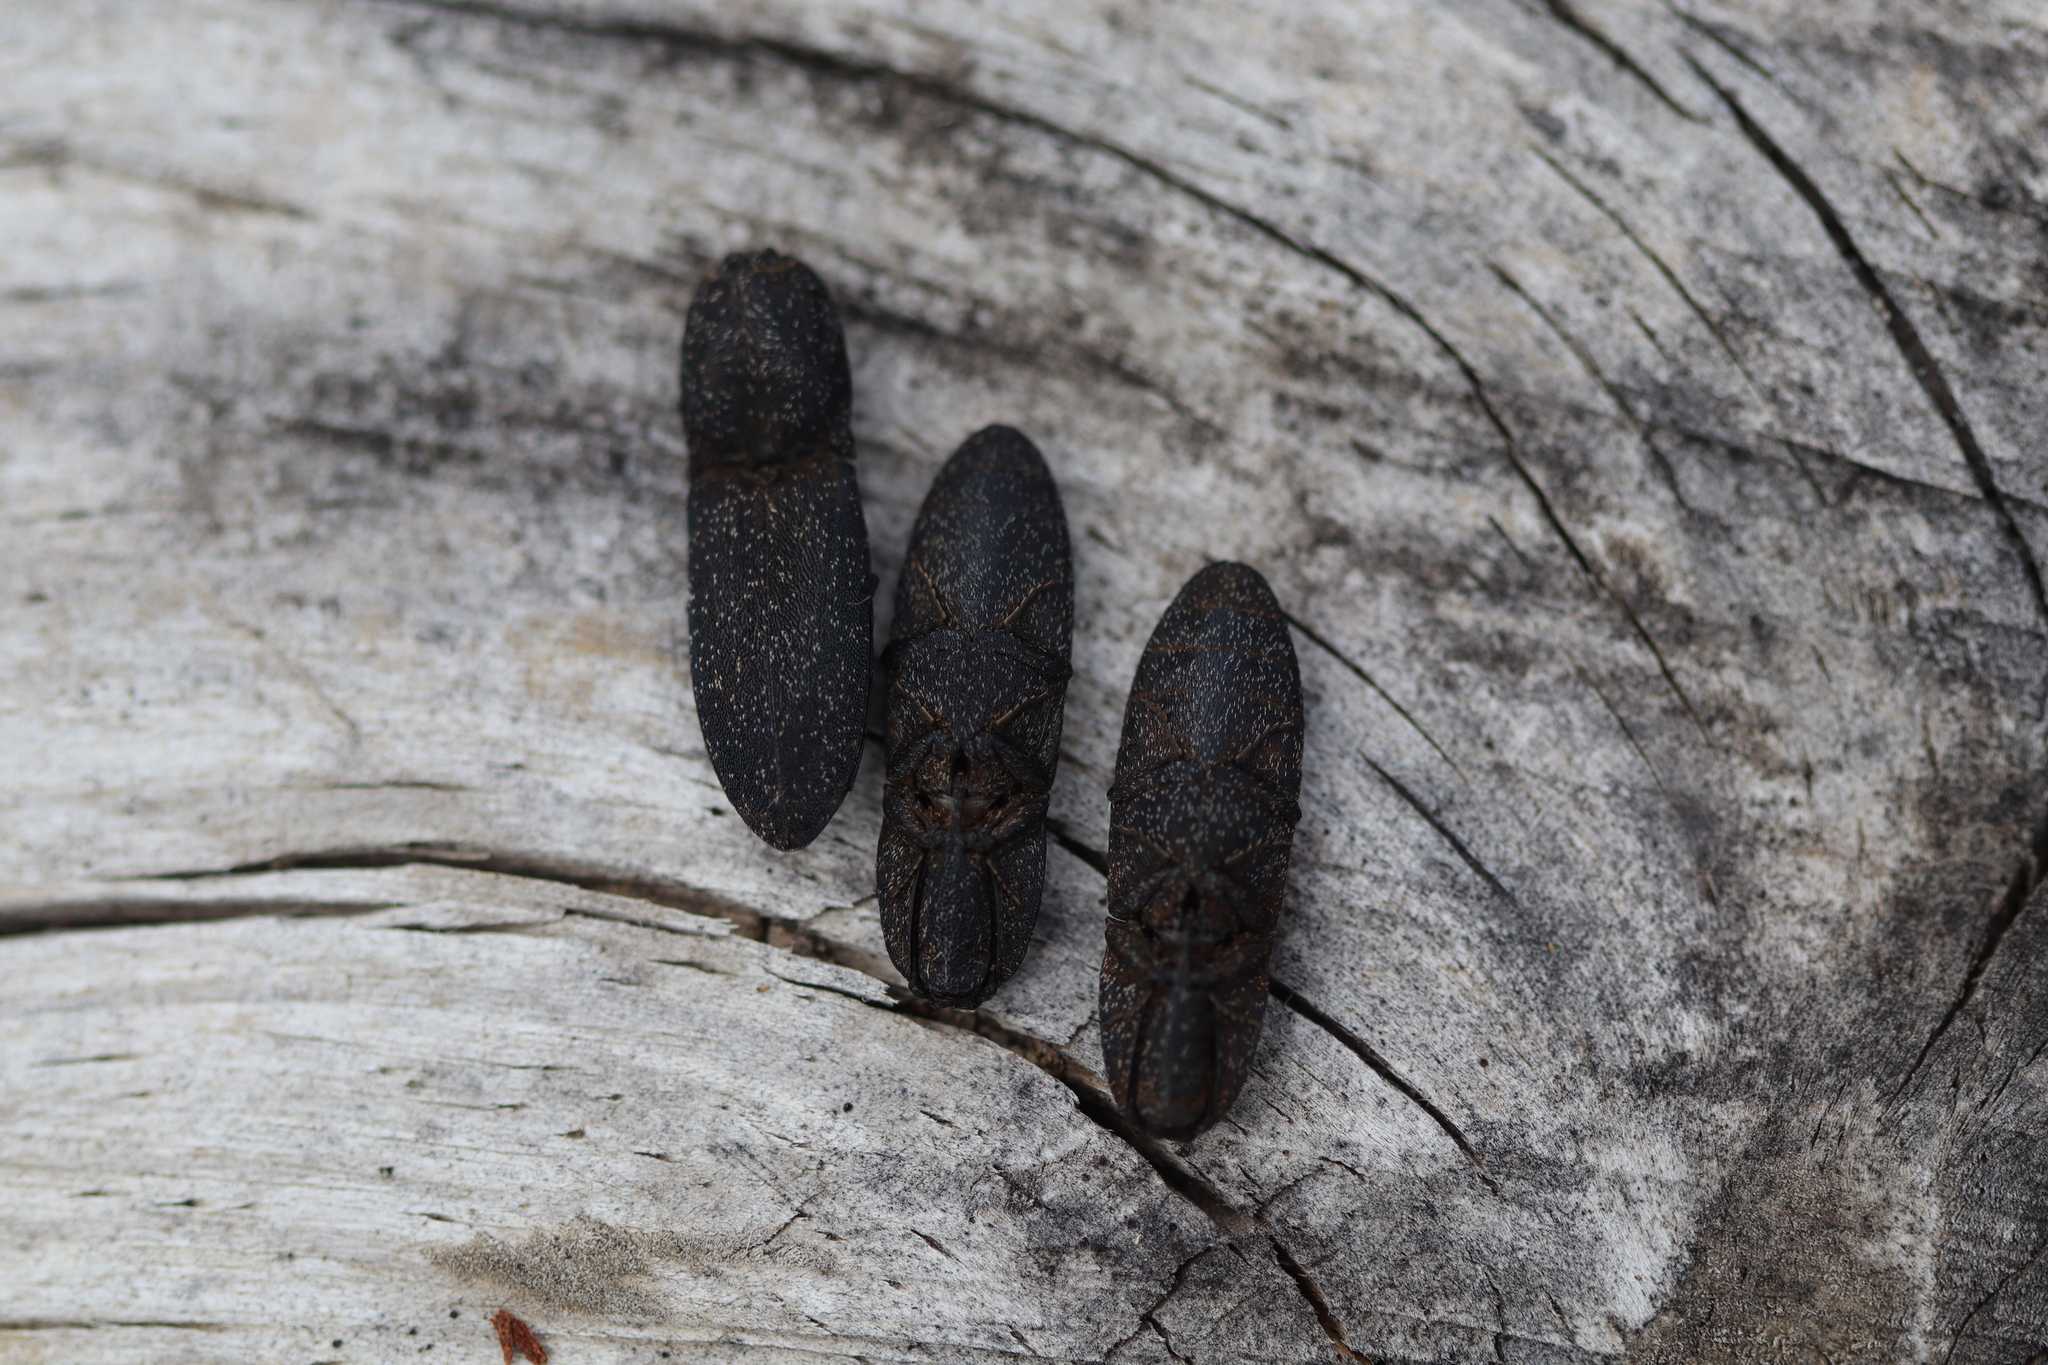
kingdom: Animalia
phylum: Arthropoda
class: Insecta
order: Coleoptera
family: Elateridae
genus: Lacon
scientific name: Lacon punctatus
